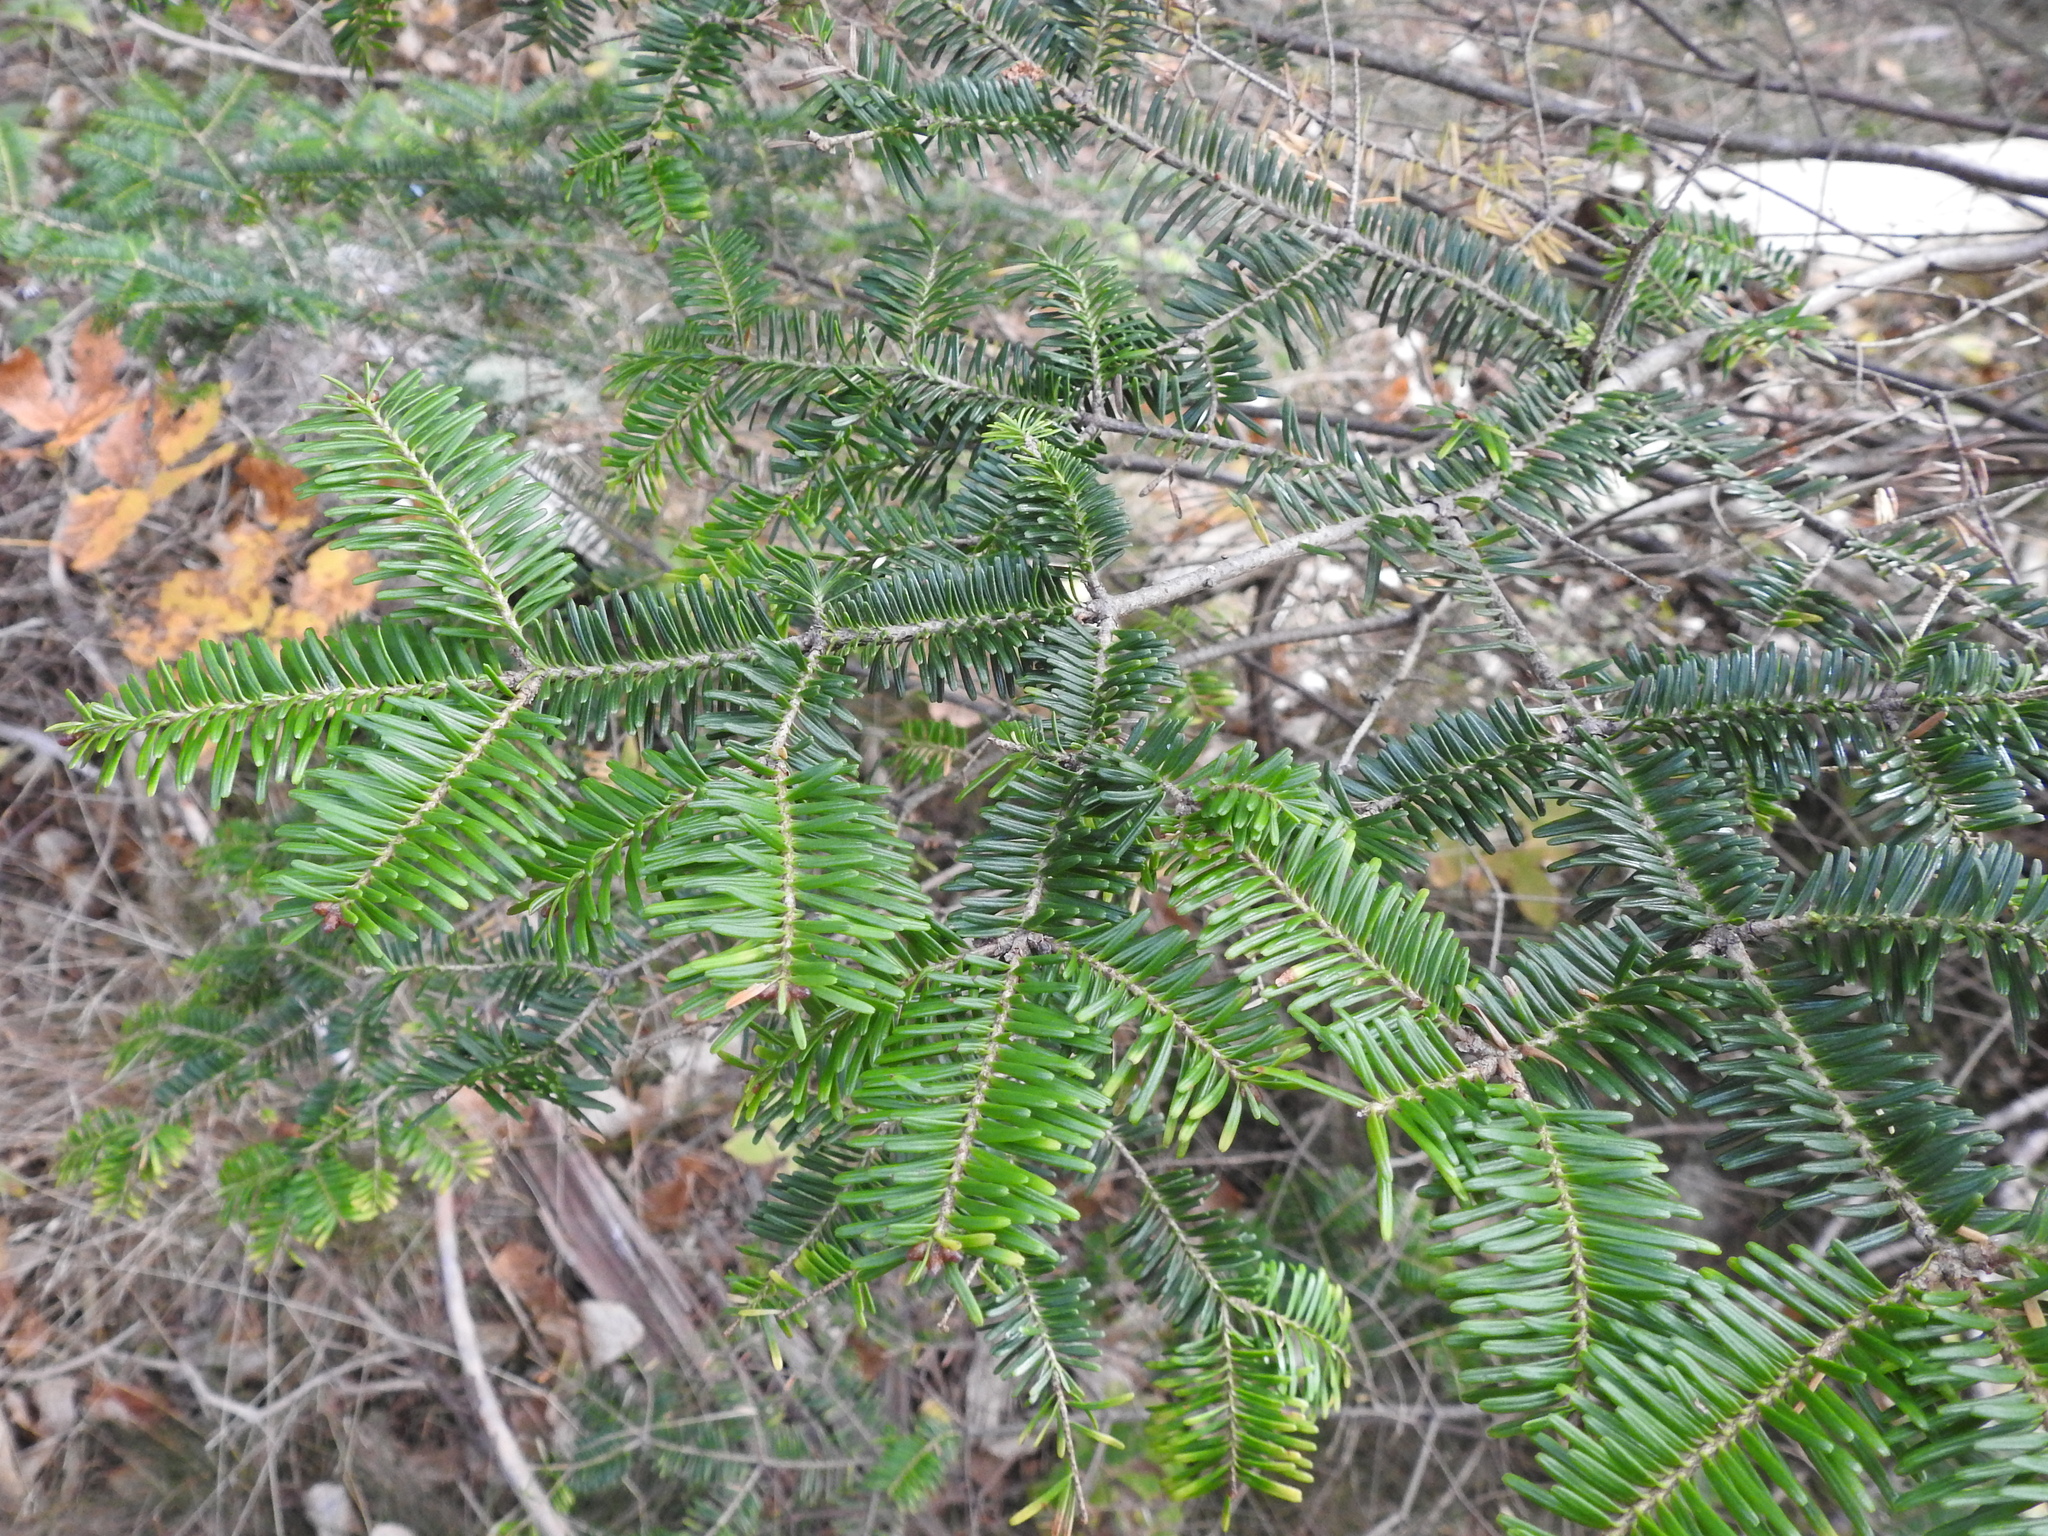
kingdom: Plantae
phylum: Tracheophyta
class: Pinopsida
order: Pinales
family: Pinaceae
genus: Abies
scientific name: Abies balsamea
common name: Balsam fir
